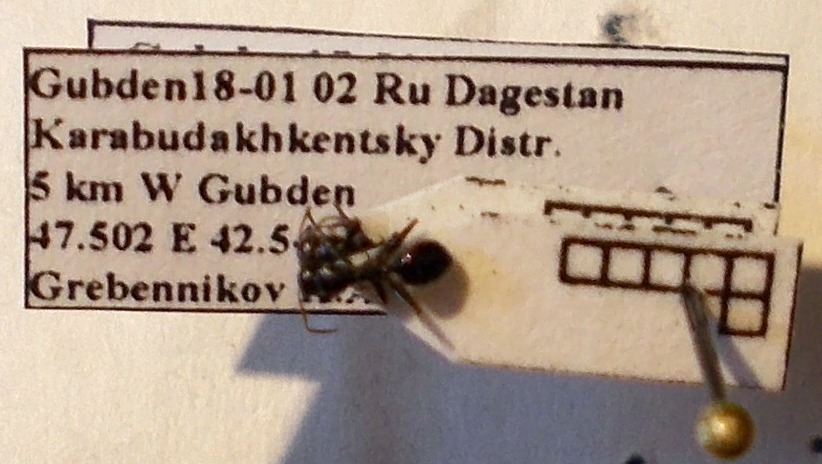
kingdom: Animalia
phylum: Arthropoda
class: Insecta
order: Hymenoptera
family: Formicidae
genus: Camponotus
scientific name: Camponotus piceus
